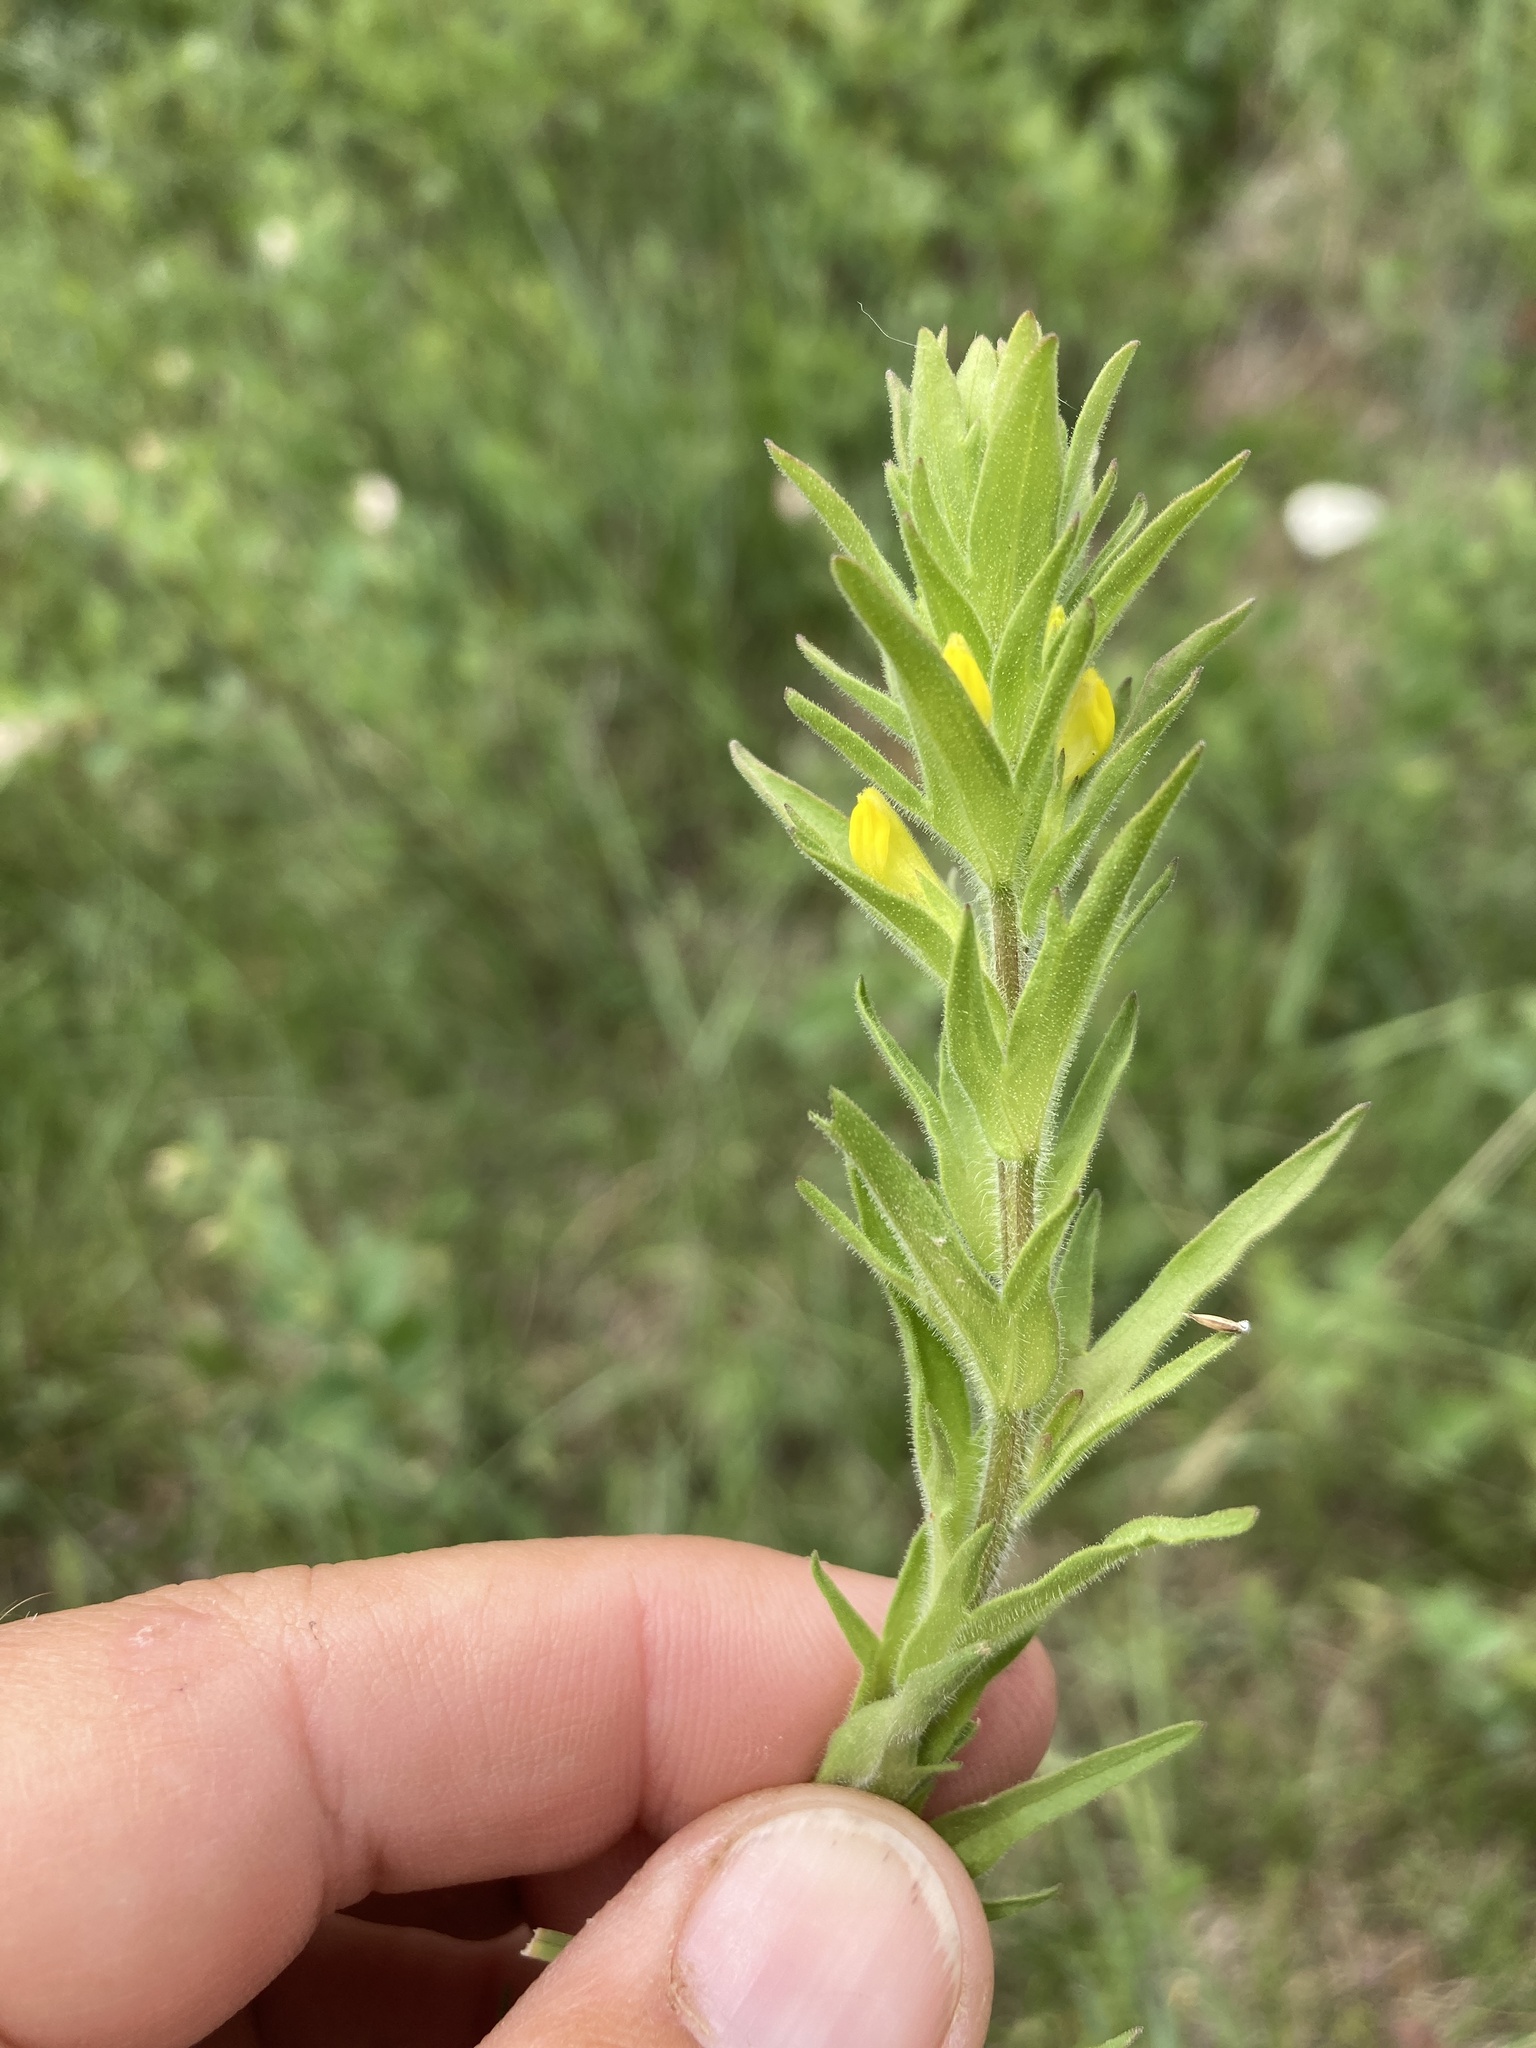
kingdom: Plantae
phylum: Tracheophyta
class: Magnoliopsida
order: Lamiales
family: Orobanchaceae
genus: Orthocarpus
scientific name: Orthocarpus luteus
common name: Golden-tongue owl's-clover
